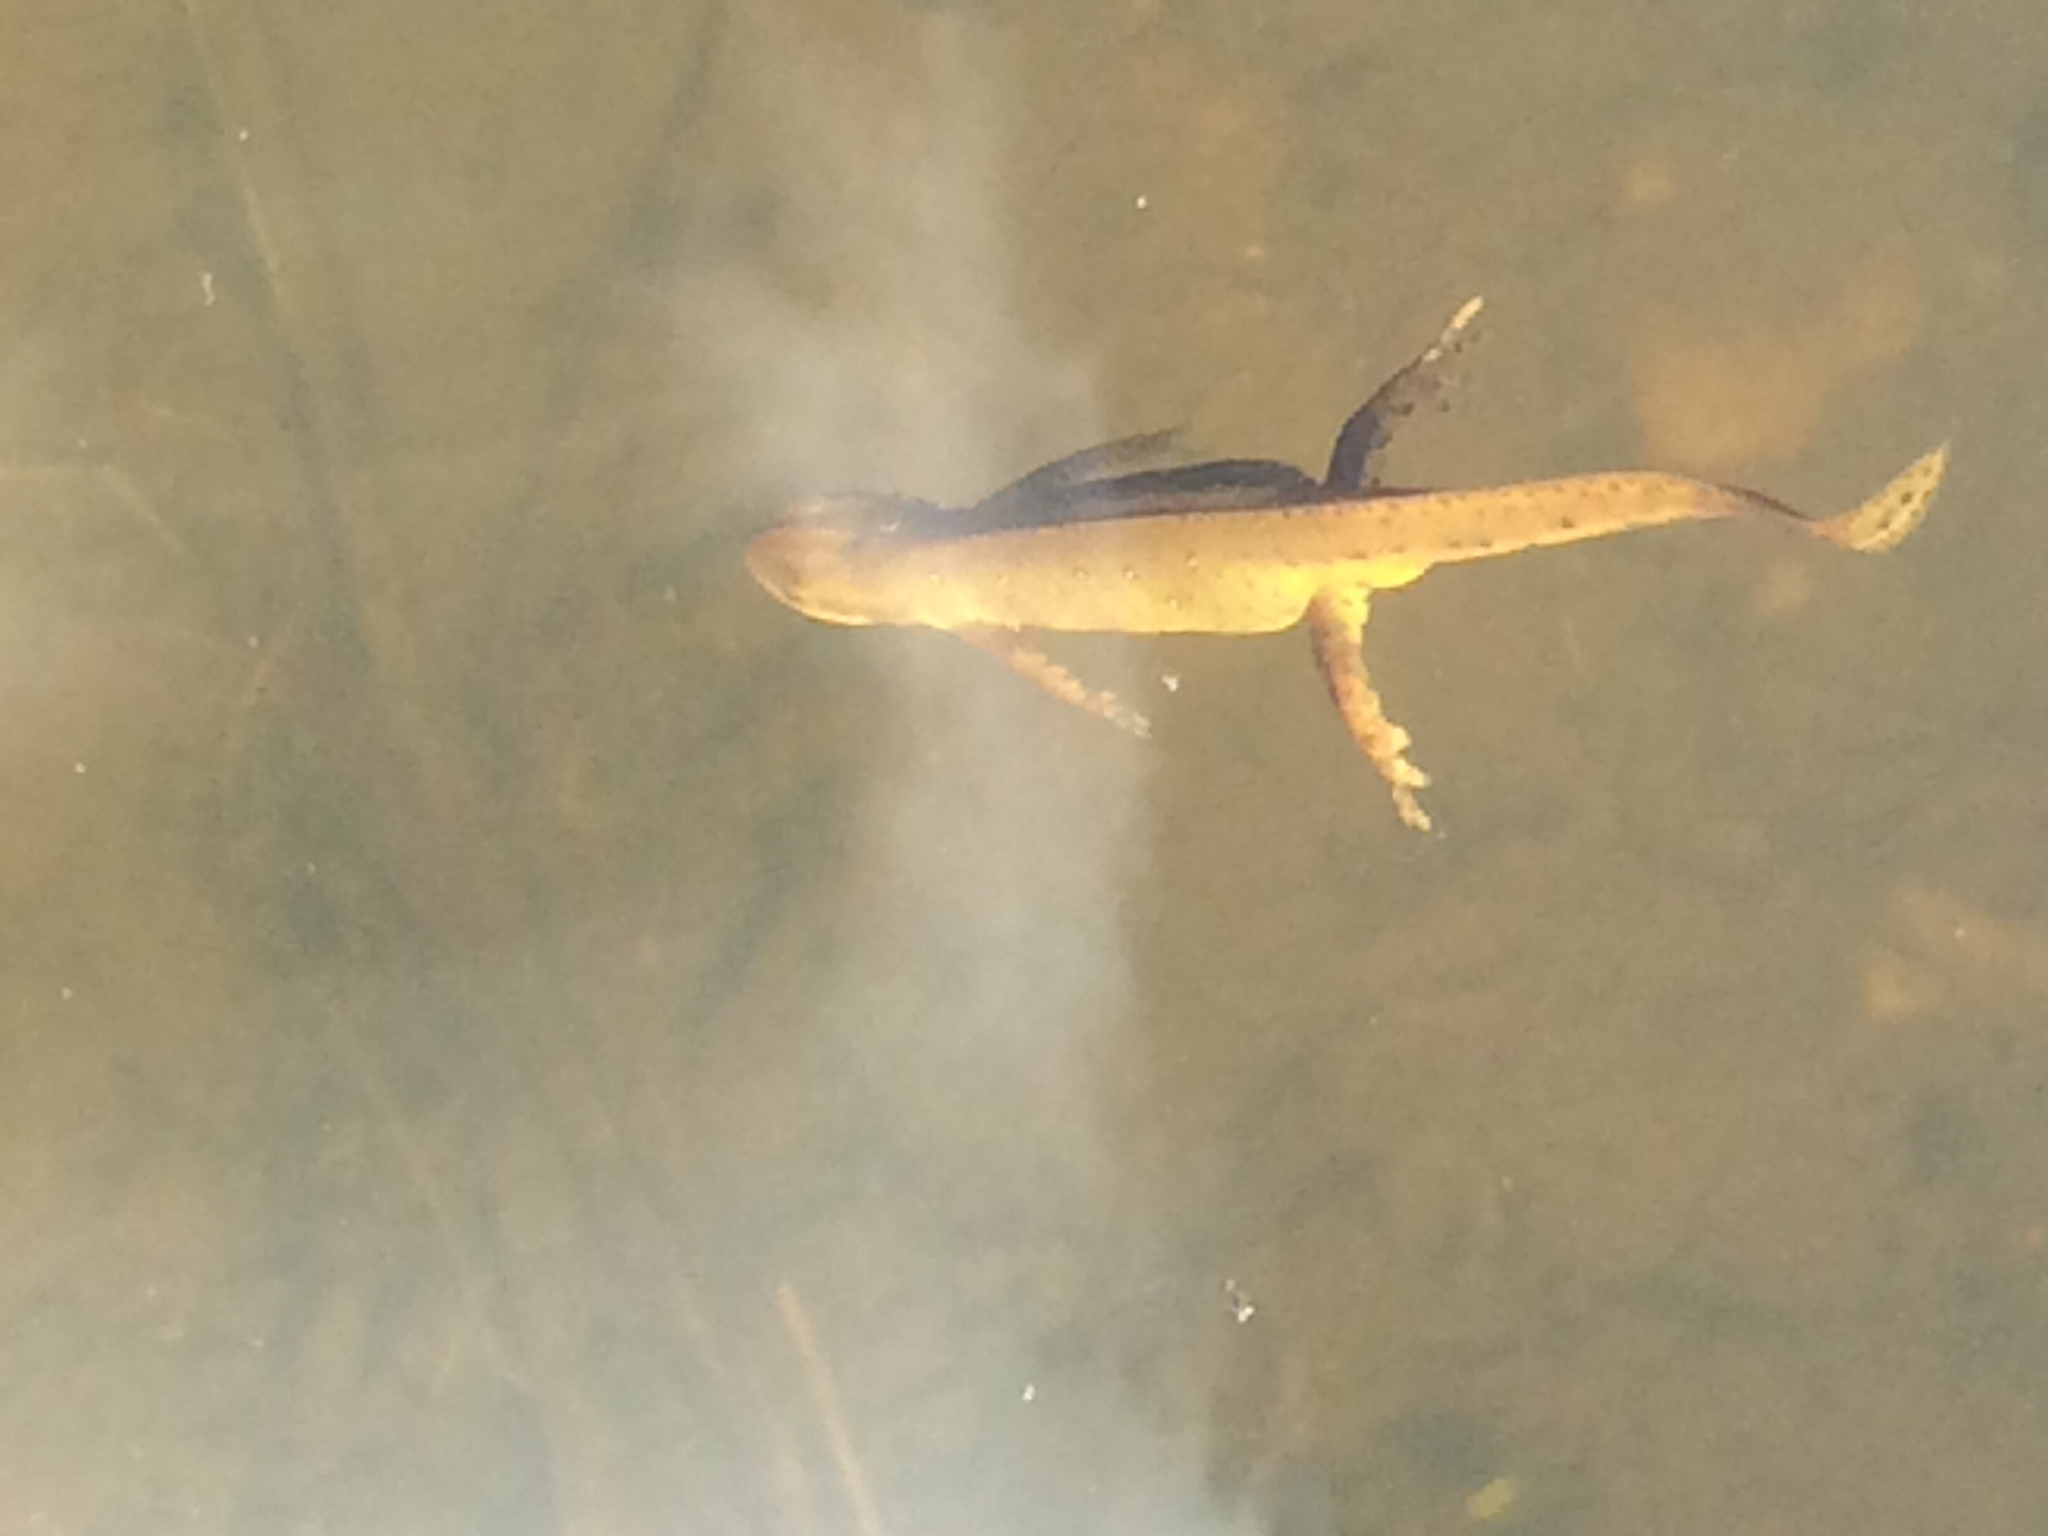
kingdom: Animalia
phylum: Chordata
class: Amphibia
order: Caudata
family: Salamandridae
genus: Notophthalmus
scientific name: Notophthalmus viridescens
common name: Eastern newt
